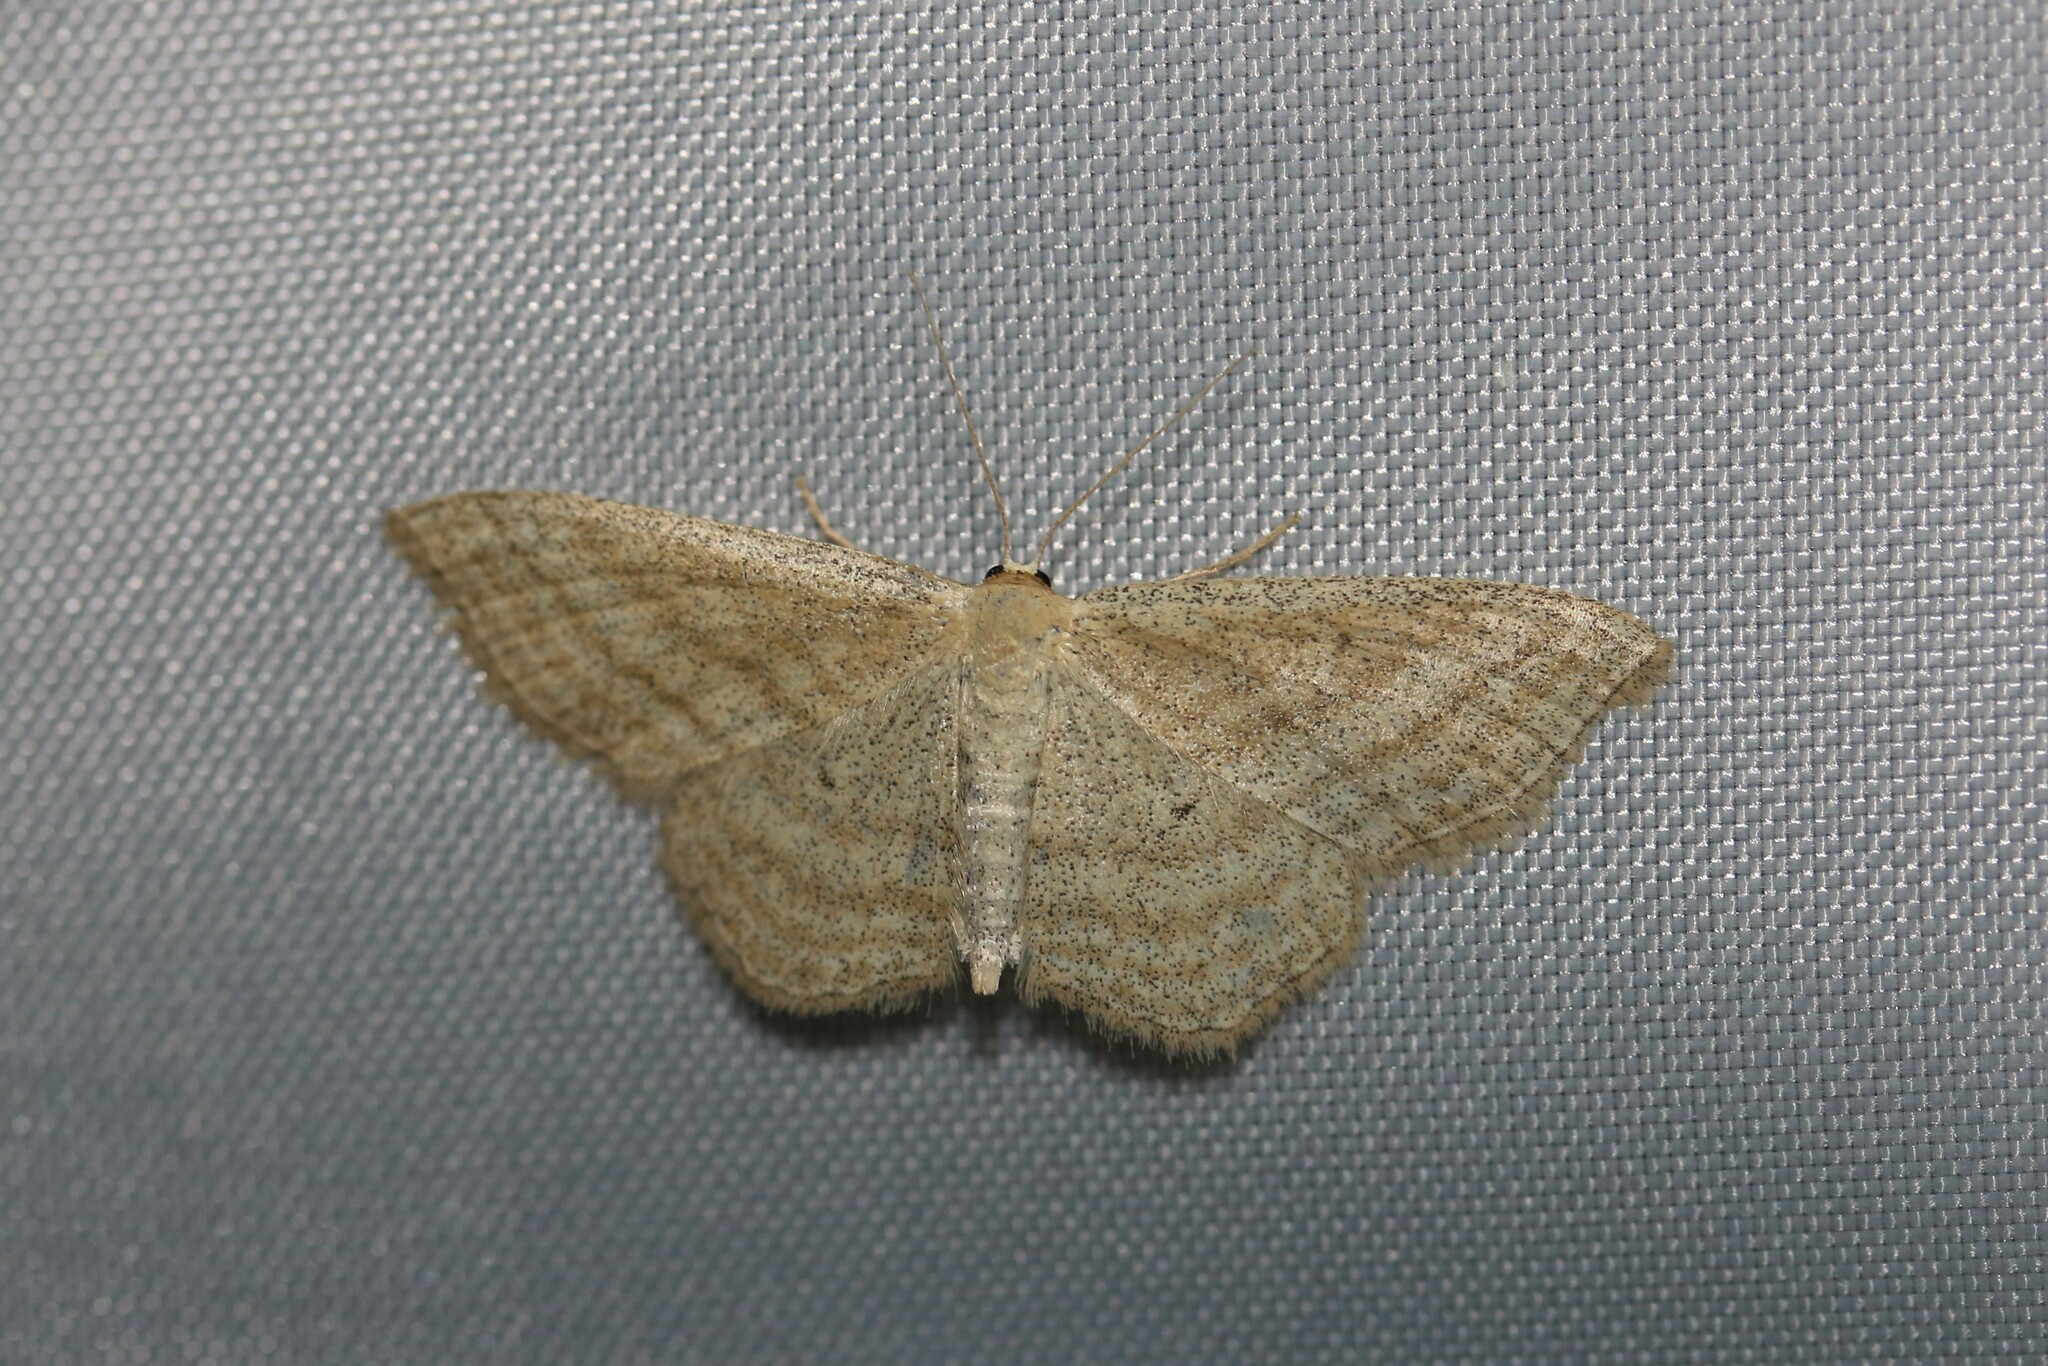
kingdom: Animalia
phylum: Arthropoda
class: Insecta
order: Lepidoptera
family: Geometridae
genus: Scopula
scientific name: Scopula virgulata
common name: Streaked wave
